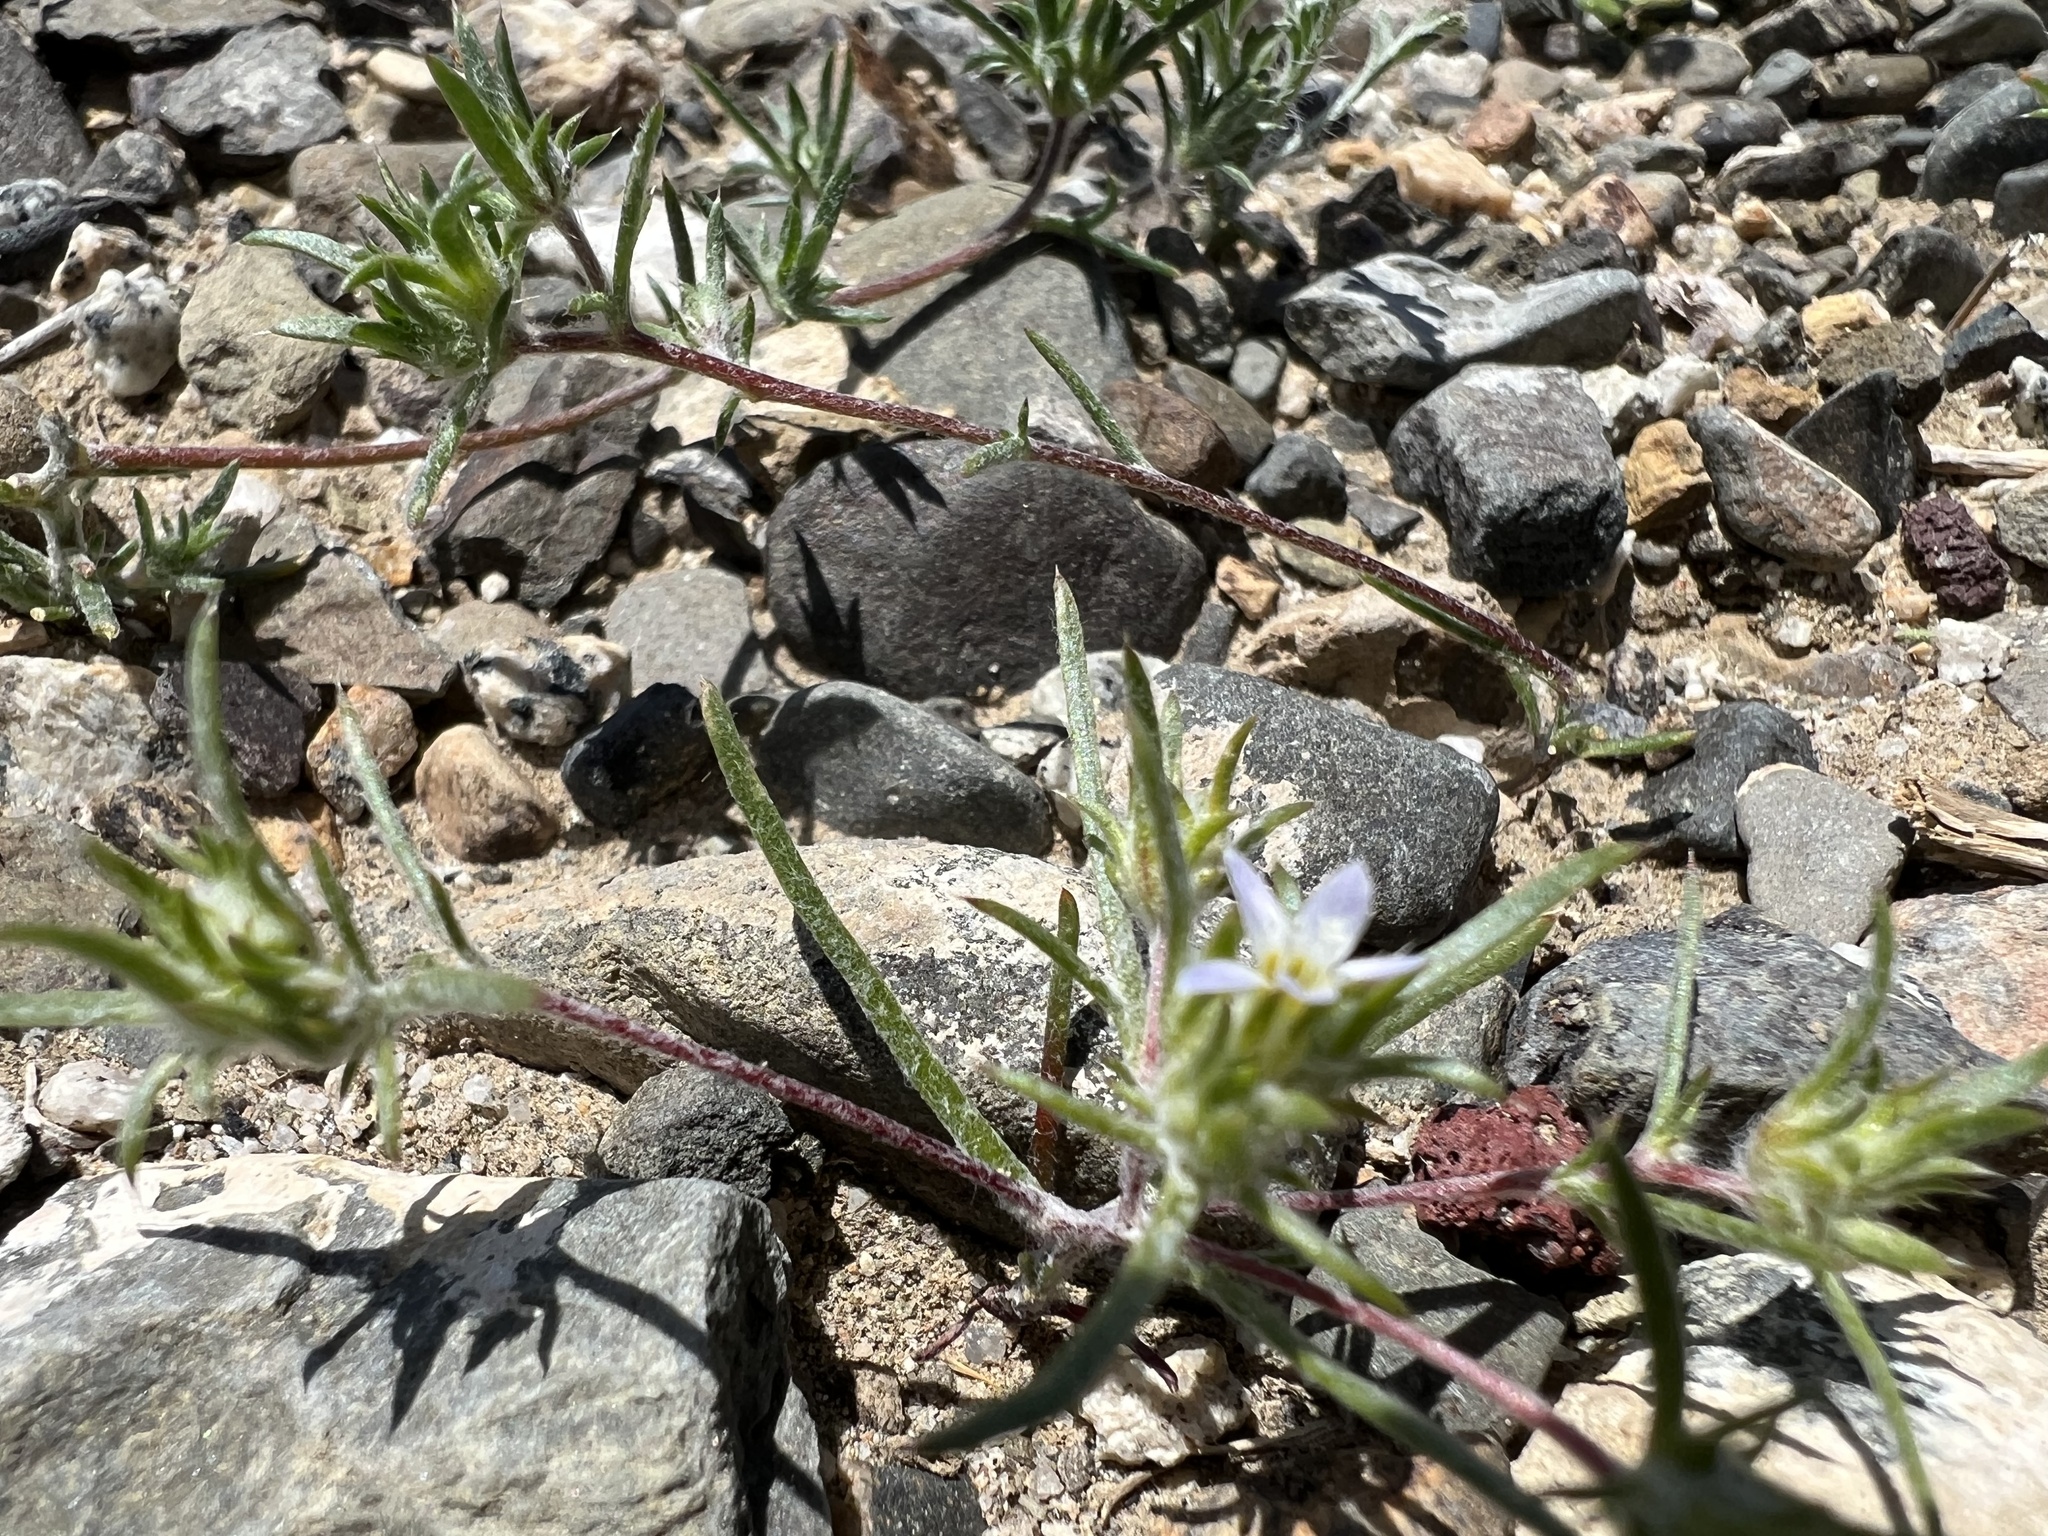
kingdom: Plantae
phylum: Tracheophyta
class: Magnoliopsida
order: Ericales
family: Polemoniaceae
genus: Eriastrum
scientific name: Eriastrum diffusum
